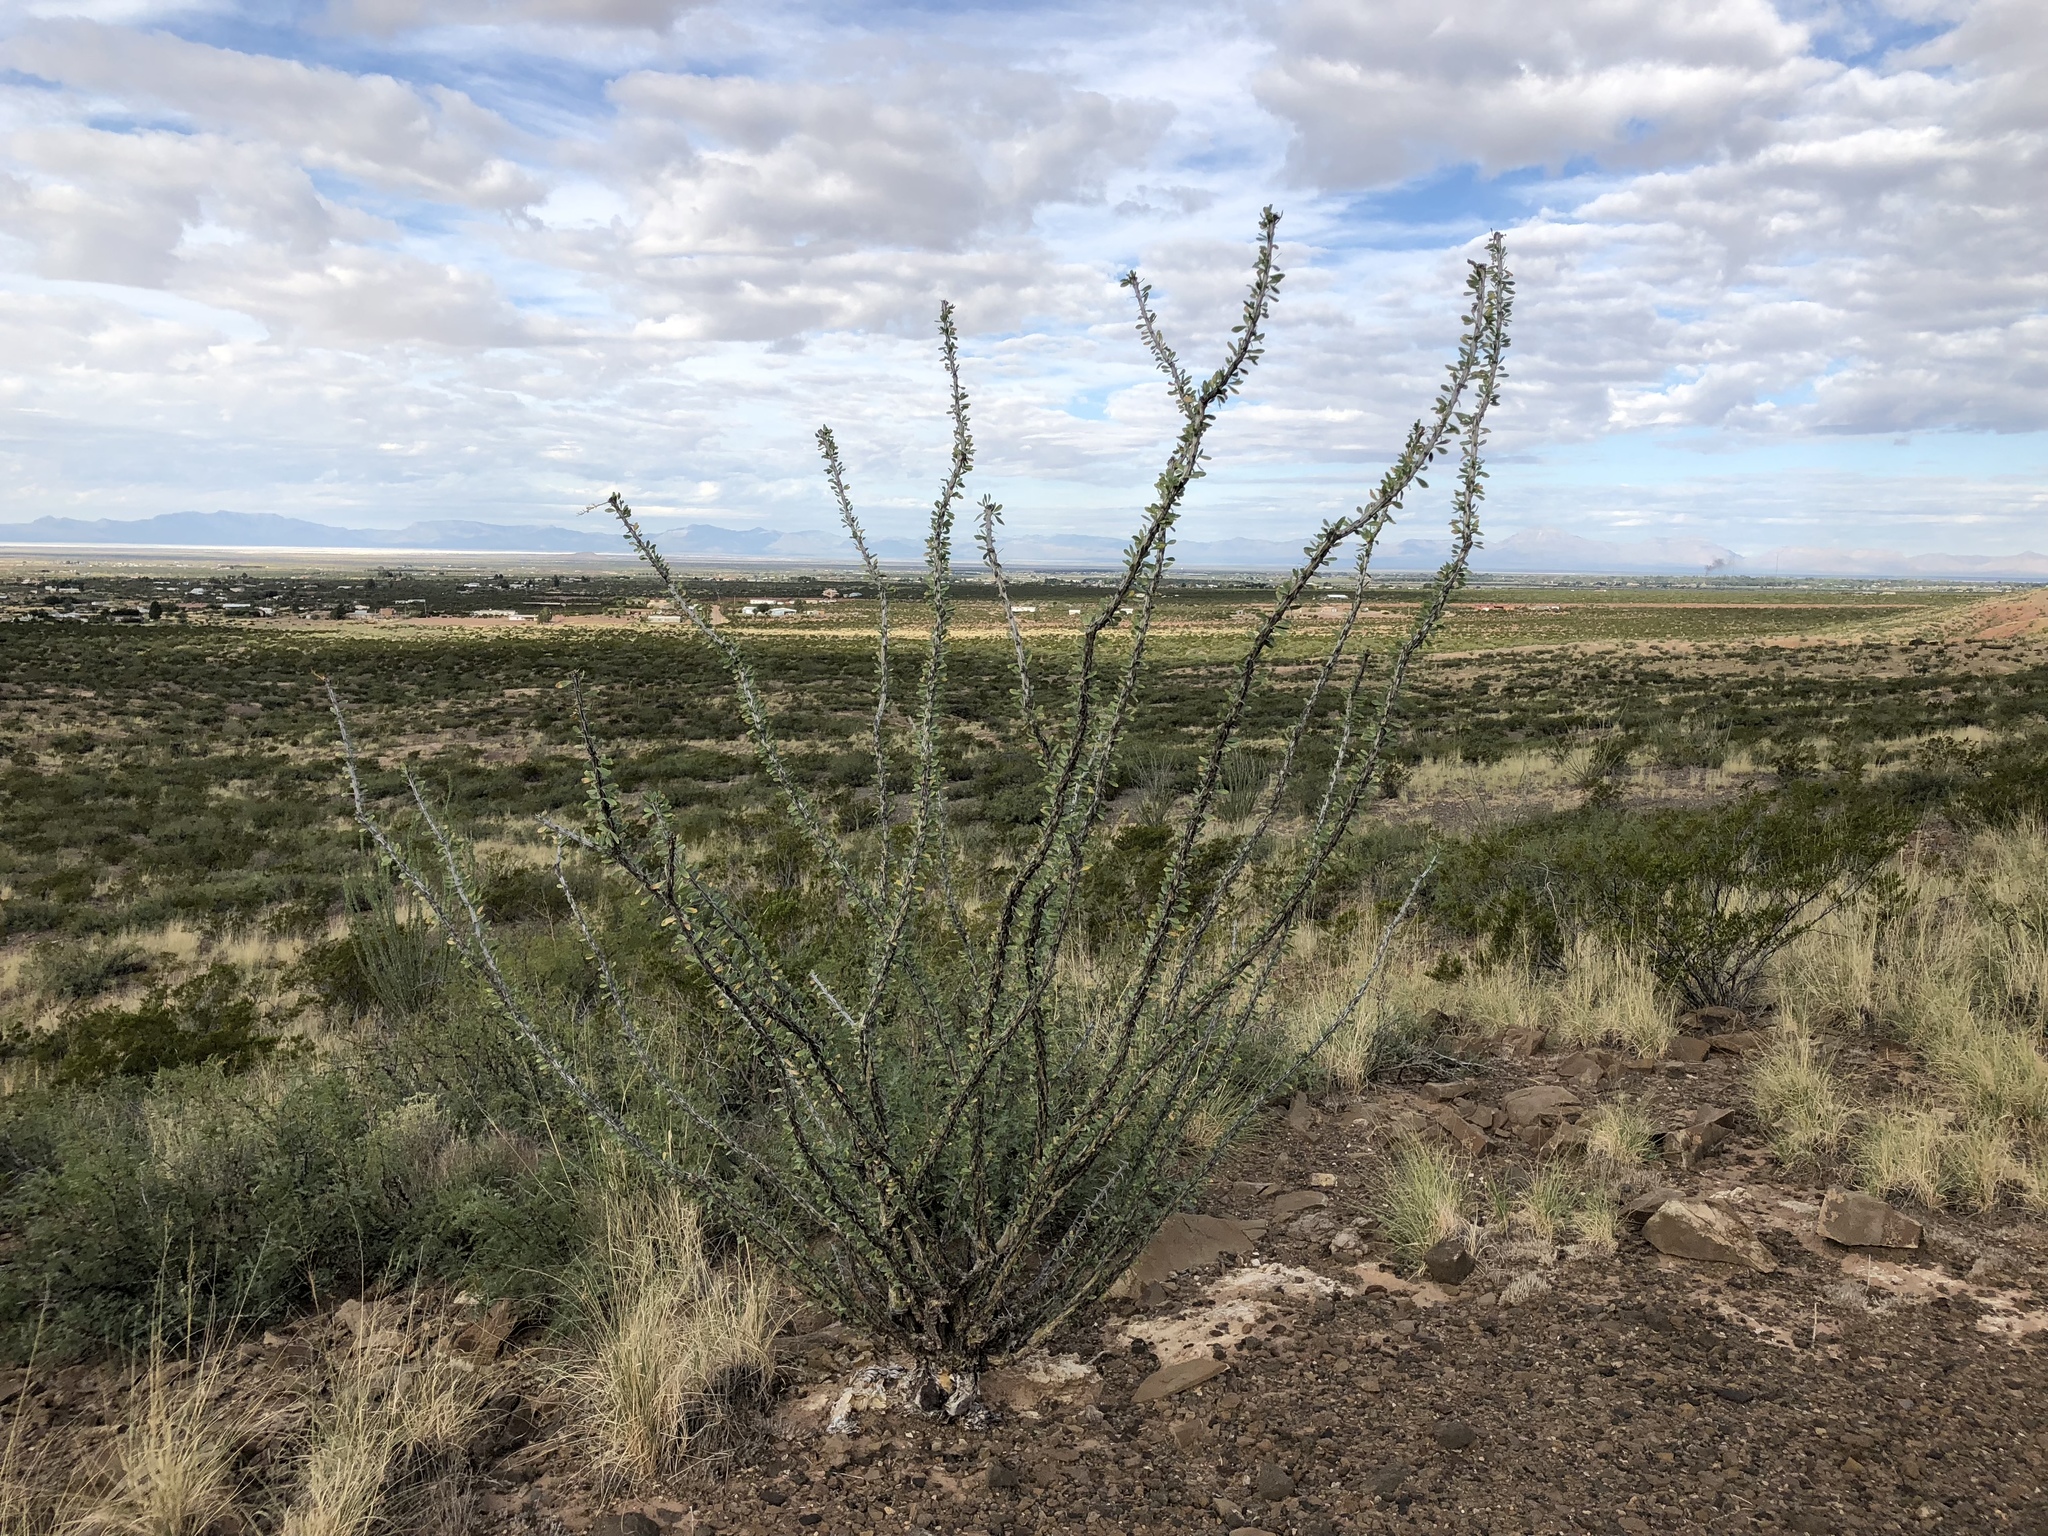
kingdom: Plantae
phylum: Tracheophyta
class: Magnoliopsida
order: Ericales
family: Fouquieriaceae
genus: Fouquieria
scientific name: Fouquieria splendens
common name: Vine-cactus
